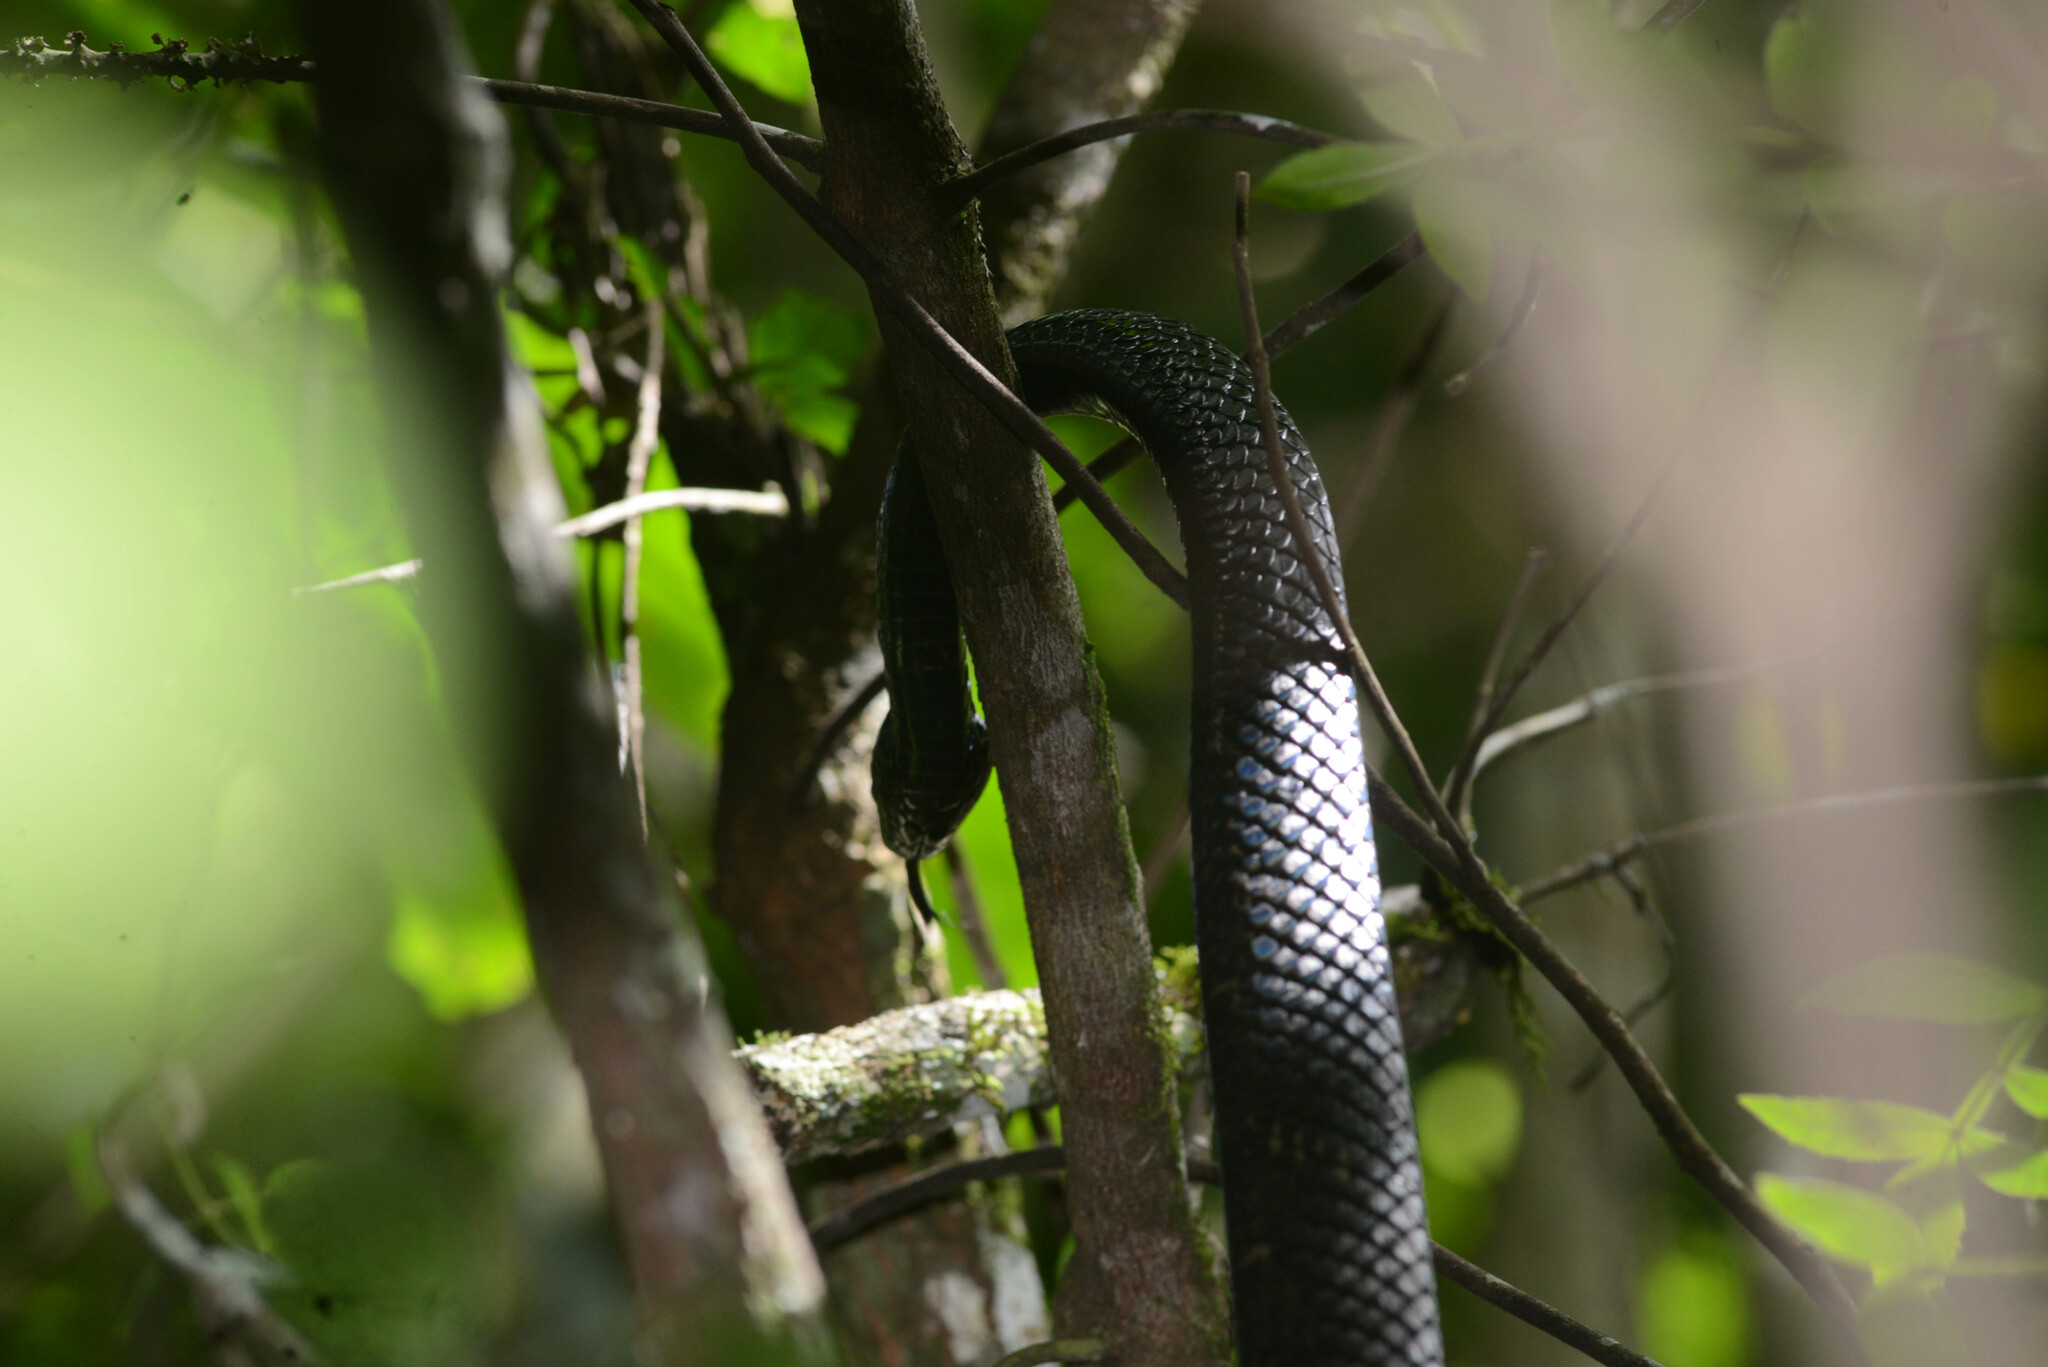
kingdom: Animalia
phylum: Chordata
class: Squamata
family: Colubridae
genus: Spilotes
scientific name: Spilotes pullatus
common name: Chicken snake
